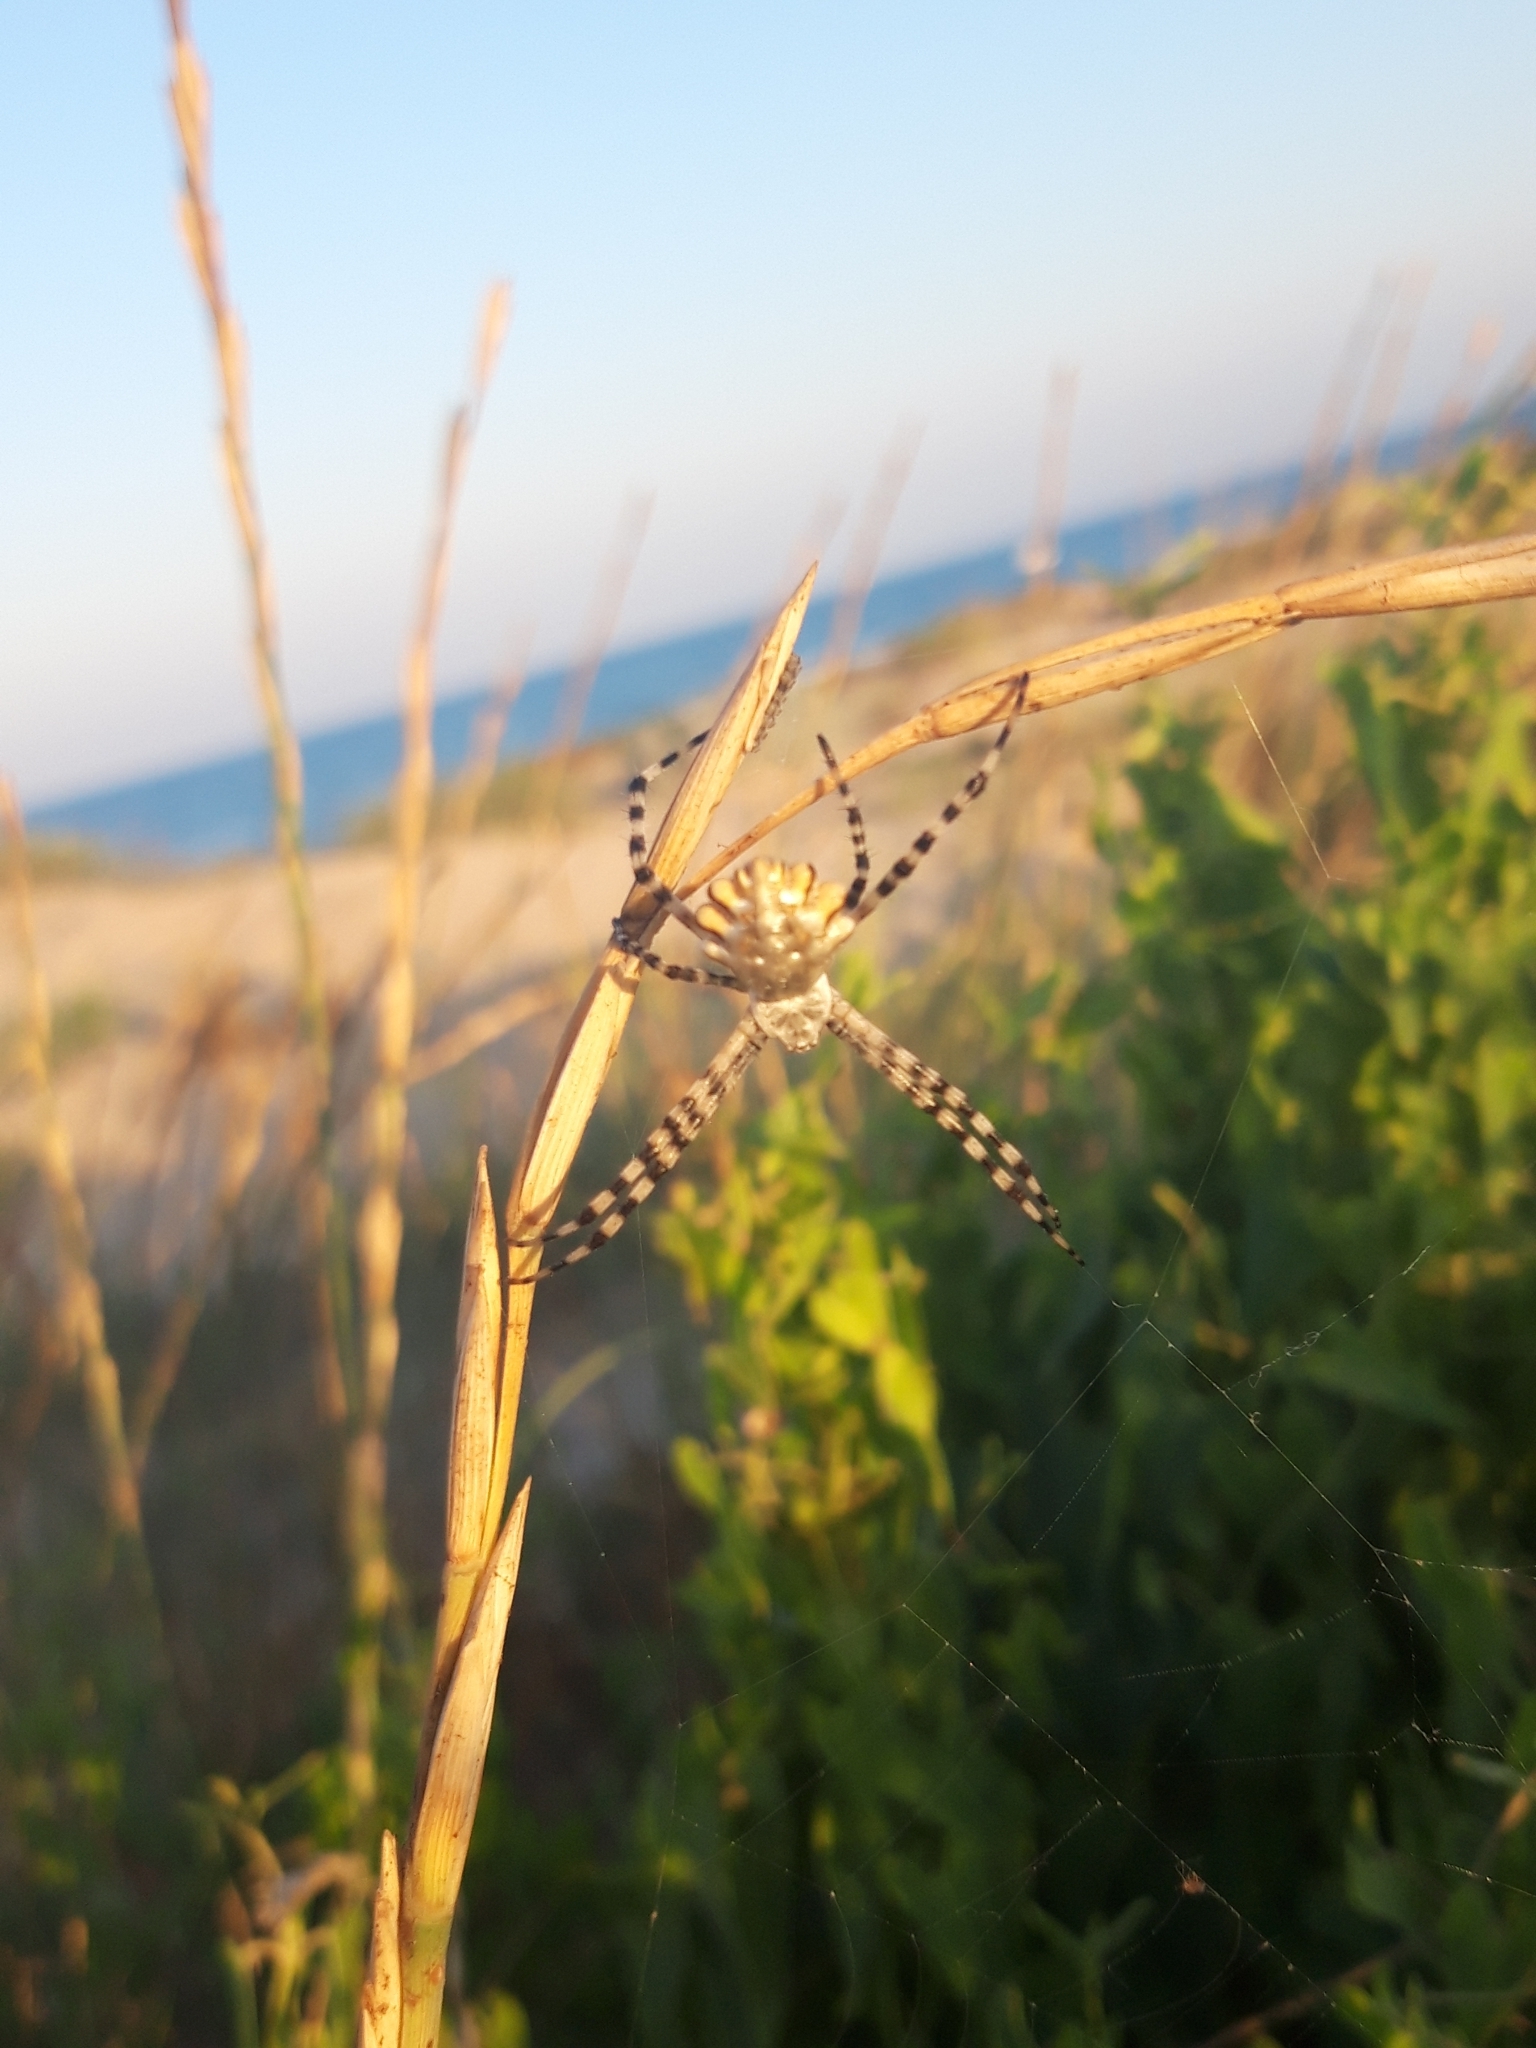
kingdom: Animalia
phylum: Arthropoda
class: Arachnida
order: Araneae
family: Araneidae
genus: Argiope
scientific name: Argiope lobata
